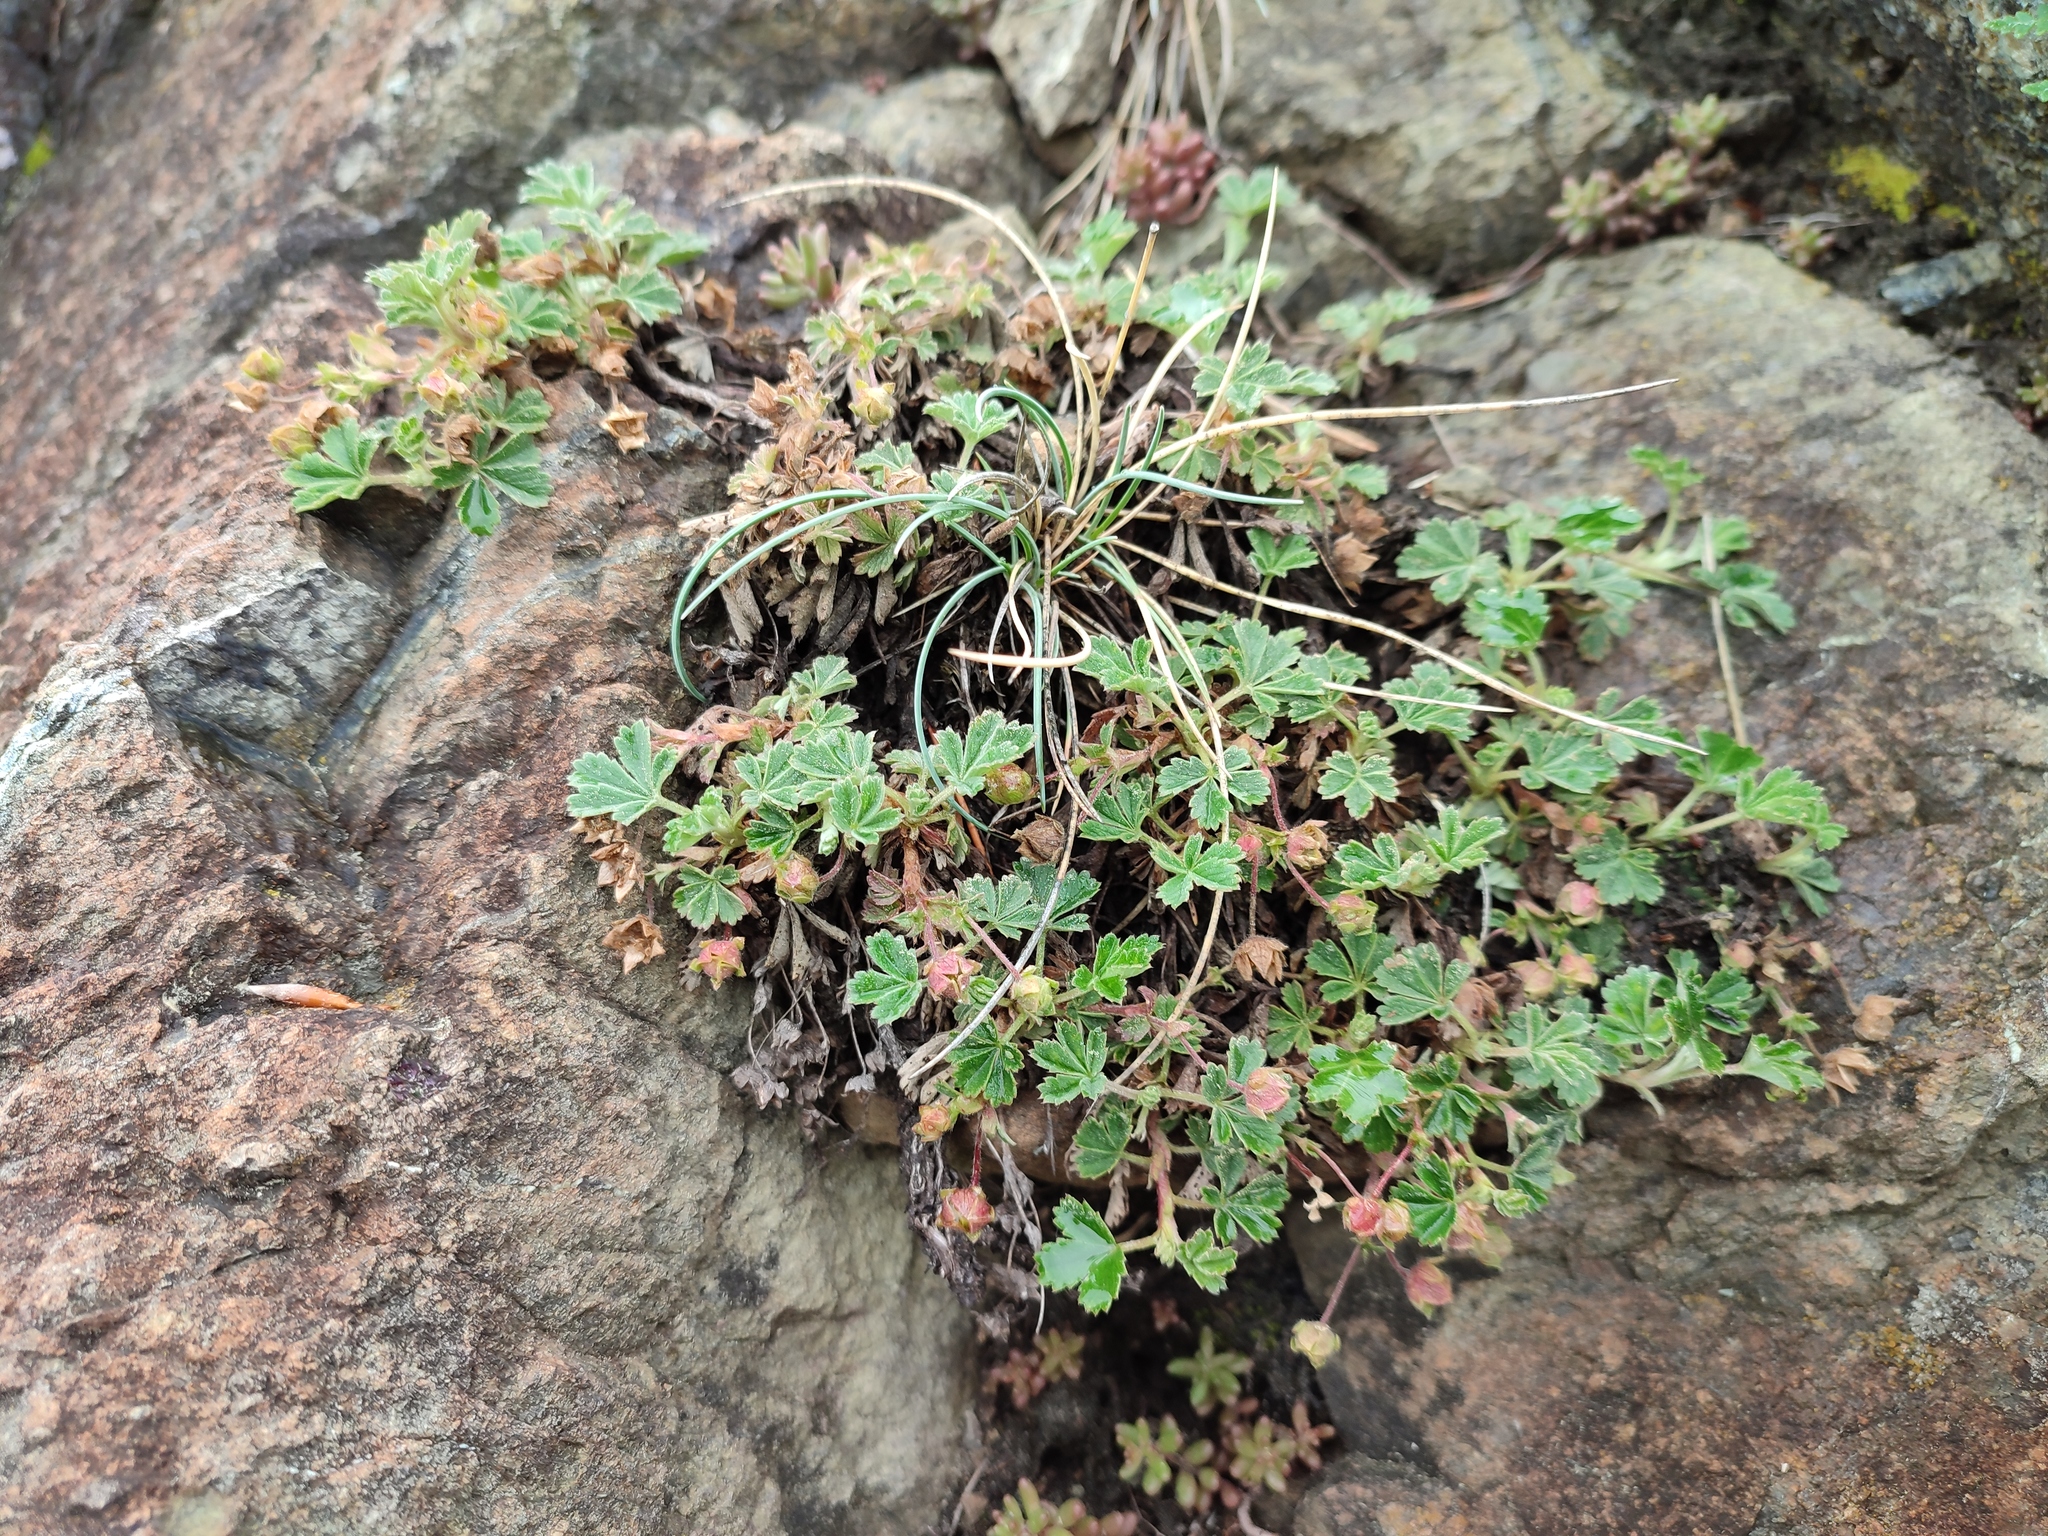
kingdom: Plantae
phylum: Tracheophyta
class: Magnoliopsida
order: Rosales
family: Rosaceae
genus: Potentilla
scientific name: Potentilla incana
